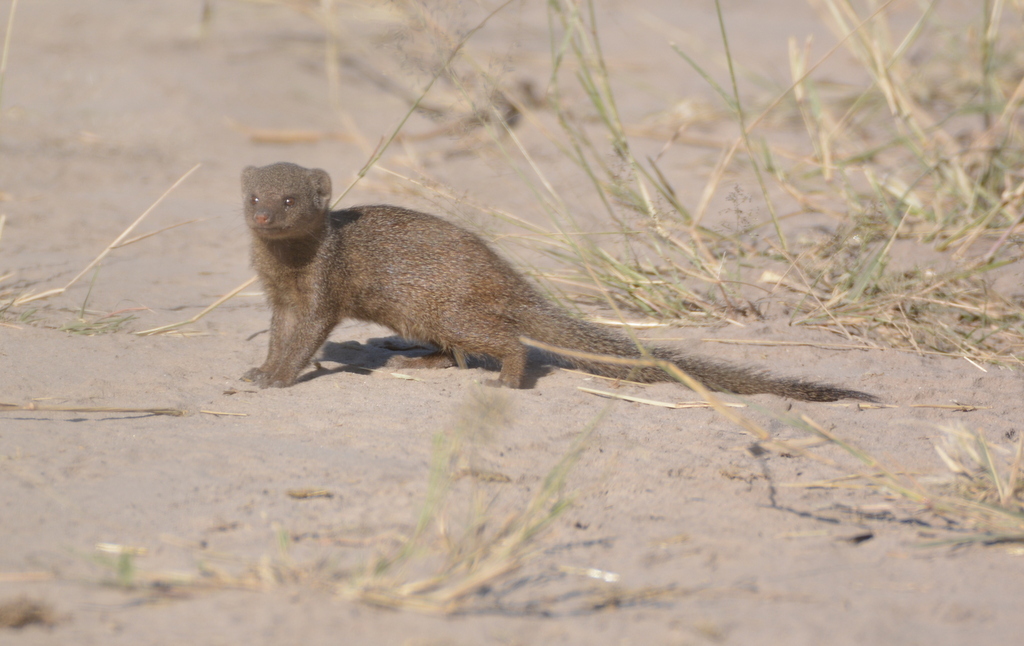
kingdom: Animalia
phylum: Chordata
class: Mammalia
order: Carnivora
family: Herpestidae
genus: Helogale
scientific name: Helogale parvula
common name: Common dwarf mongoose
